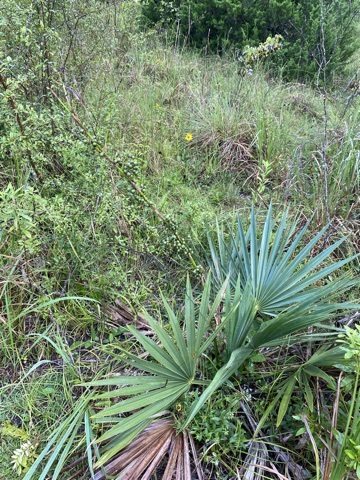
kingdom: Plantae
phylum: Tracheophyta
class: Liliopsida
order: Arecales
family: Arecaceae
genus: Sabal
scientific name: Sabal minor
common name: Dwarf palmetto
